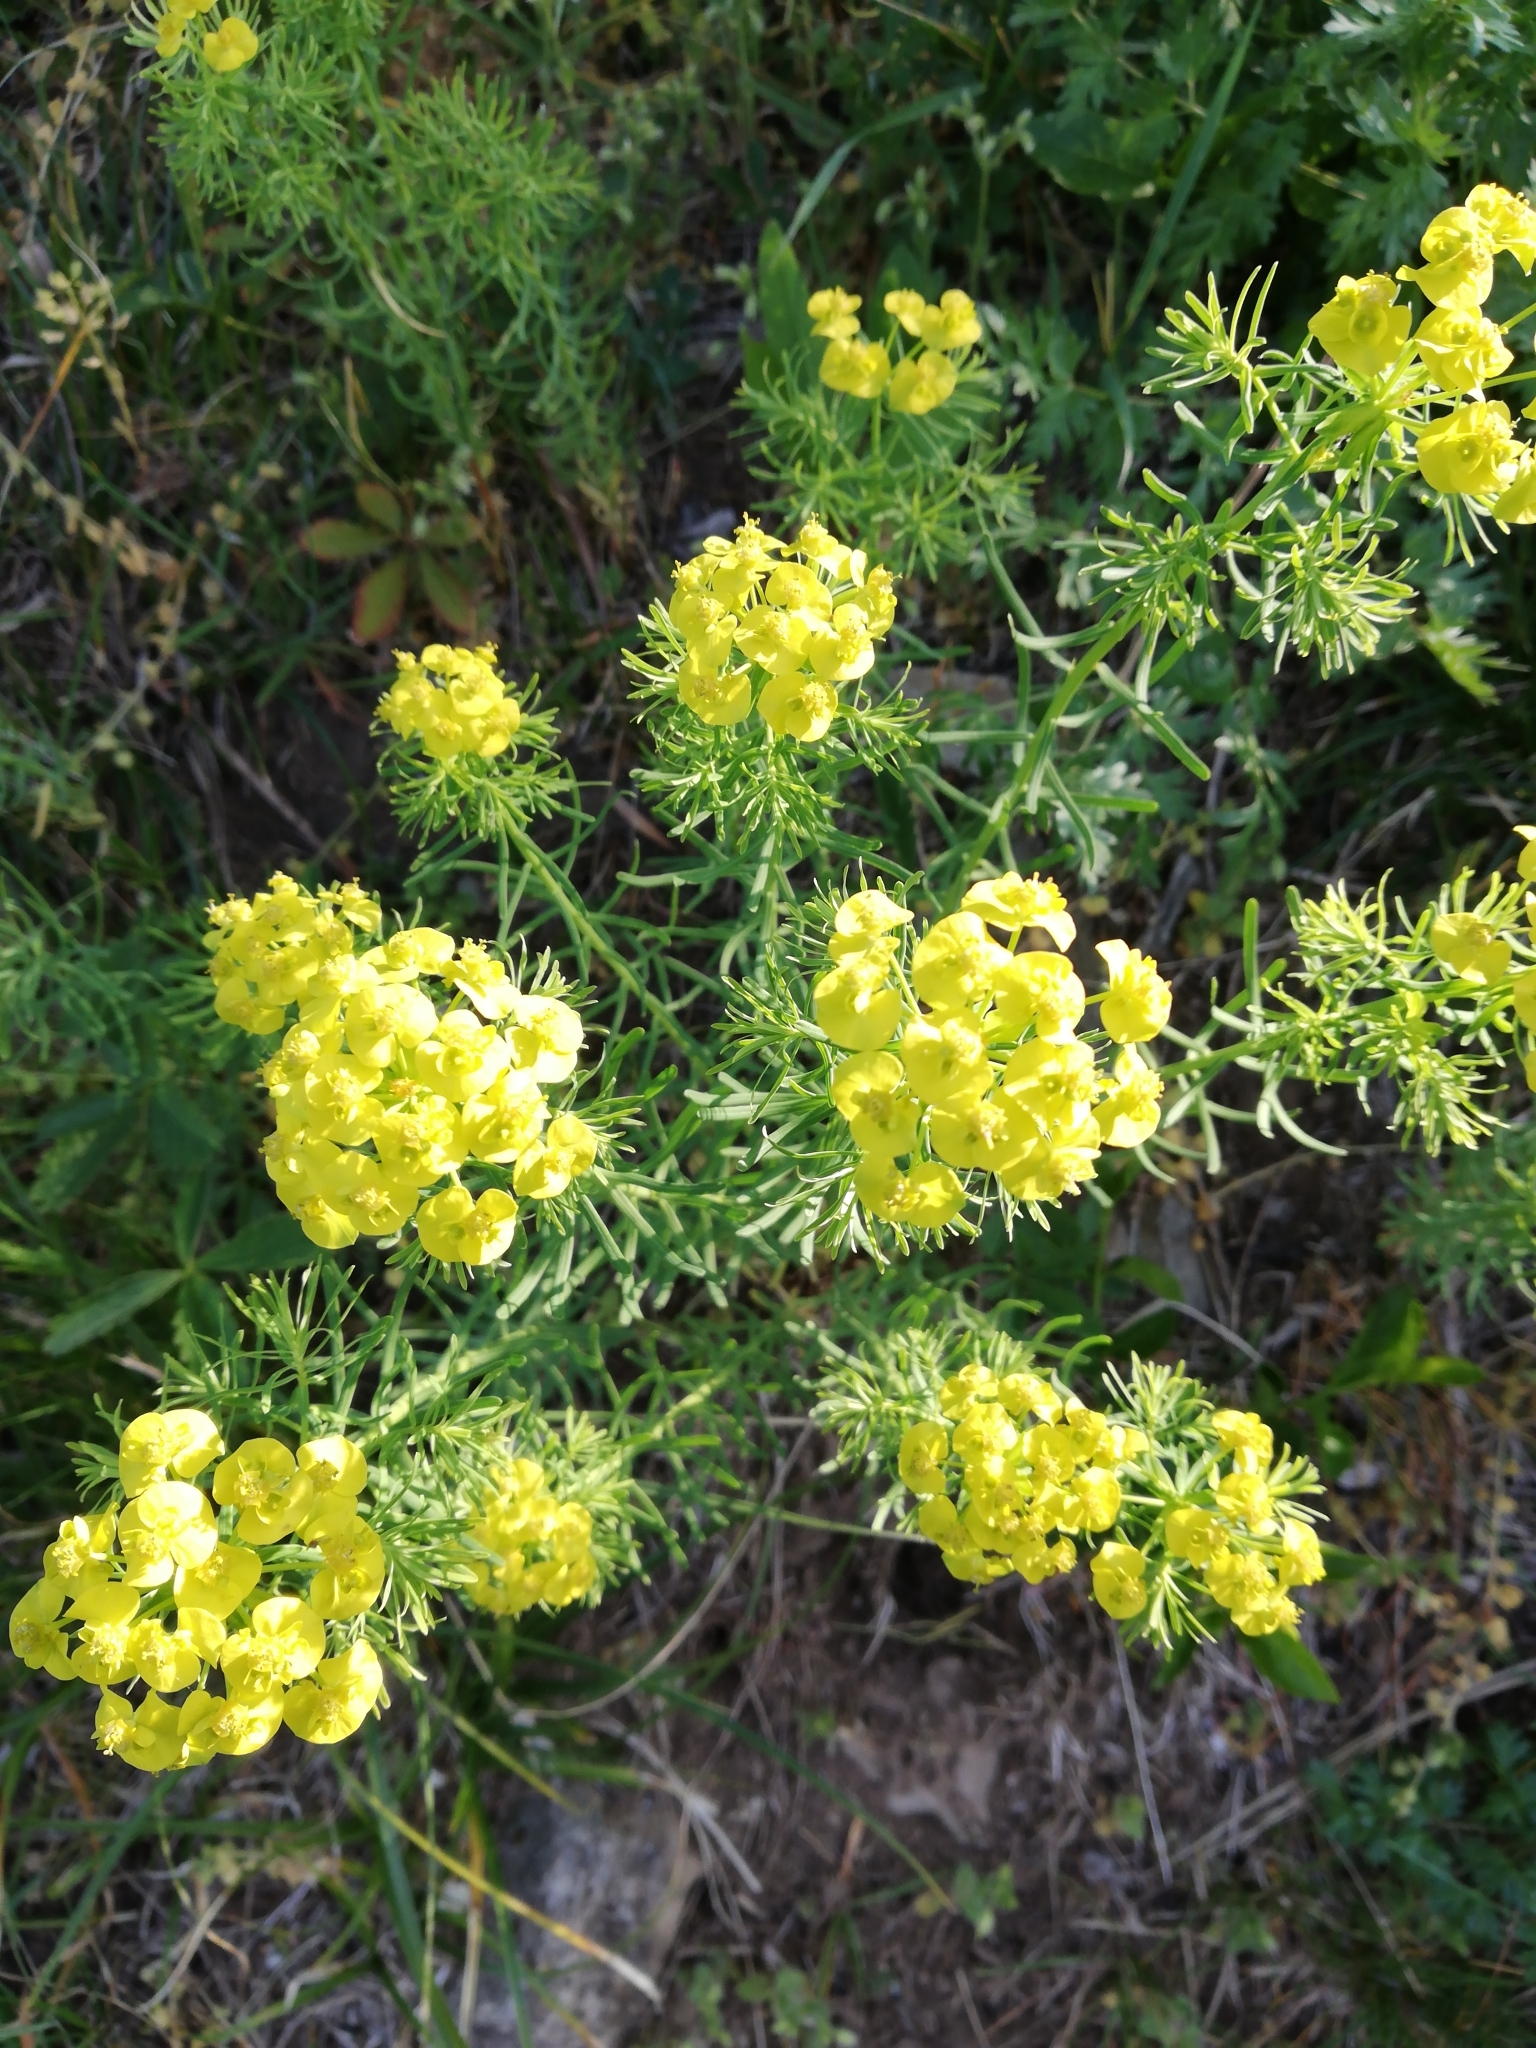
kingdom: Plantae
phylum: Tracheophyta
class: Magnoliopsida
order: Malpighiales
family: Euphorbiaceae
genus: Euphorbia
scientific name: Euphorbia cyparissias
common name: Cypress spurge
